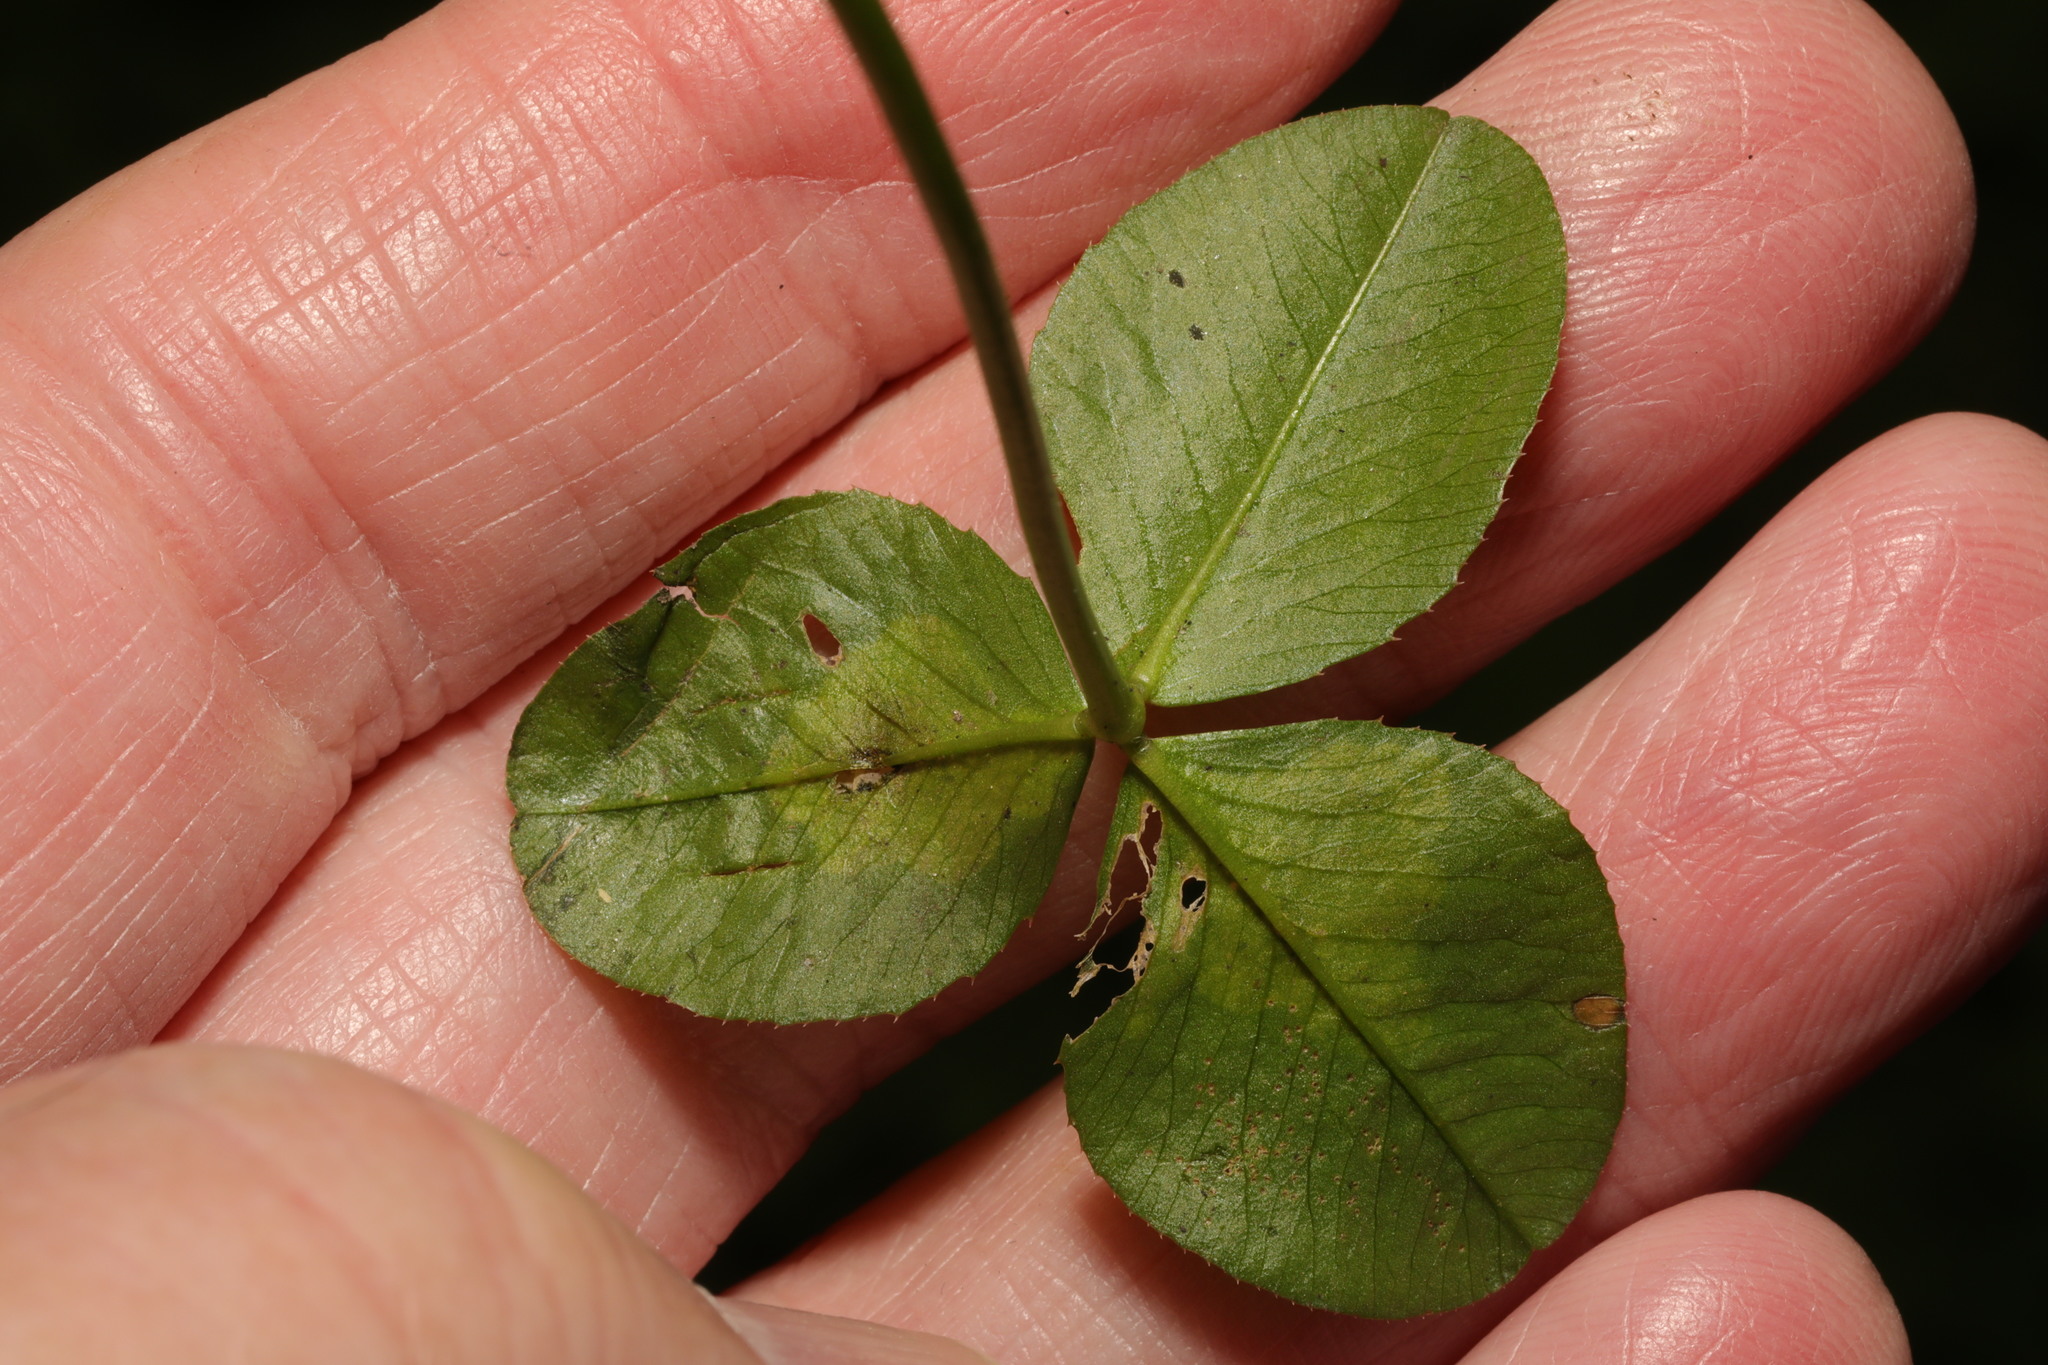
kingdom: Animalia
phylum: Arthropoda
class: Insecta
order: Diptera
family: Agromyzidae
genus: Agromyza
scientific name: Agromyza nana
